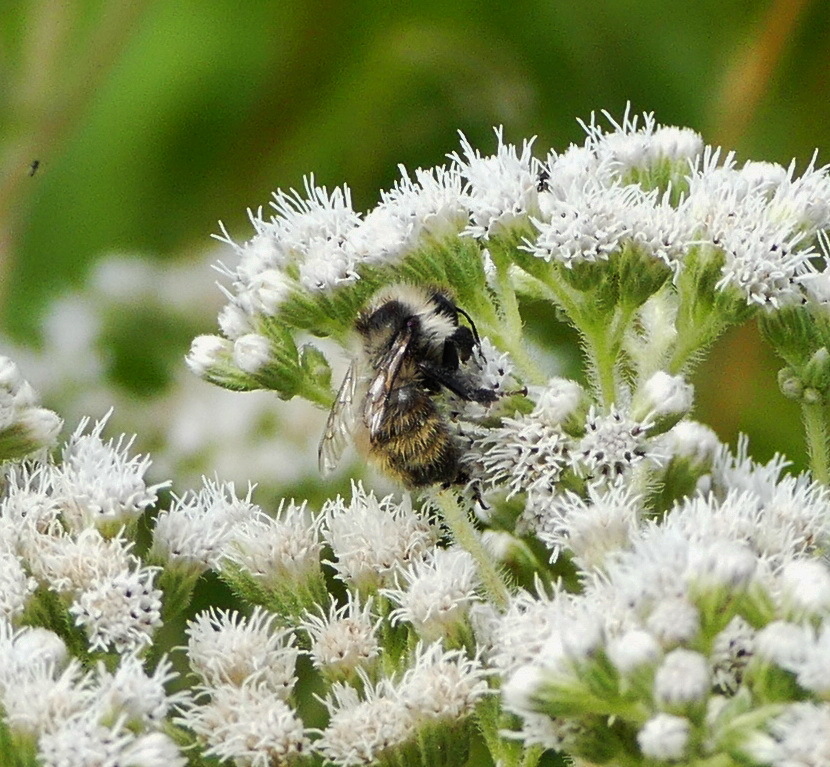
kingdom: Animalia
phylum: Arthropoda
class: Insecta
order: Hymenoptera
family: Apidae
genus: Bombus
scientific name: Bombus rufocinctus
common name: Red-belted bumble bee
